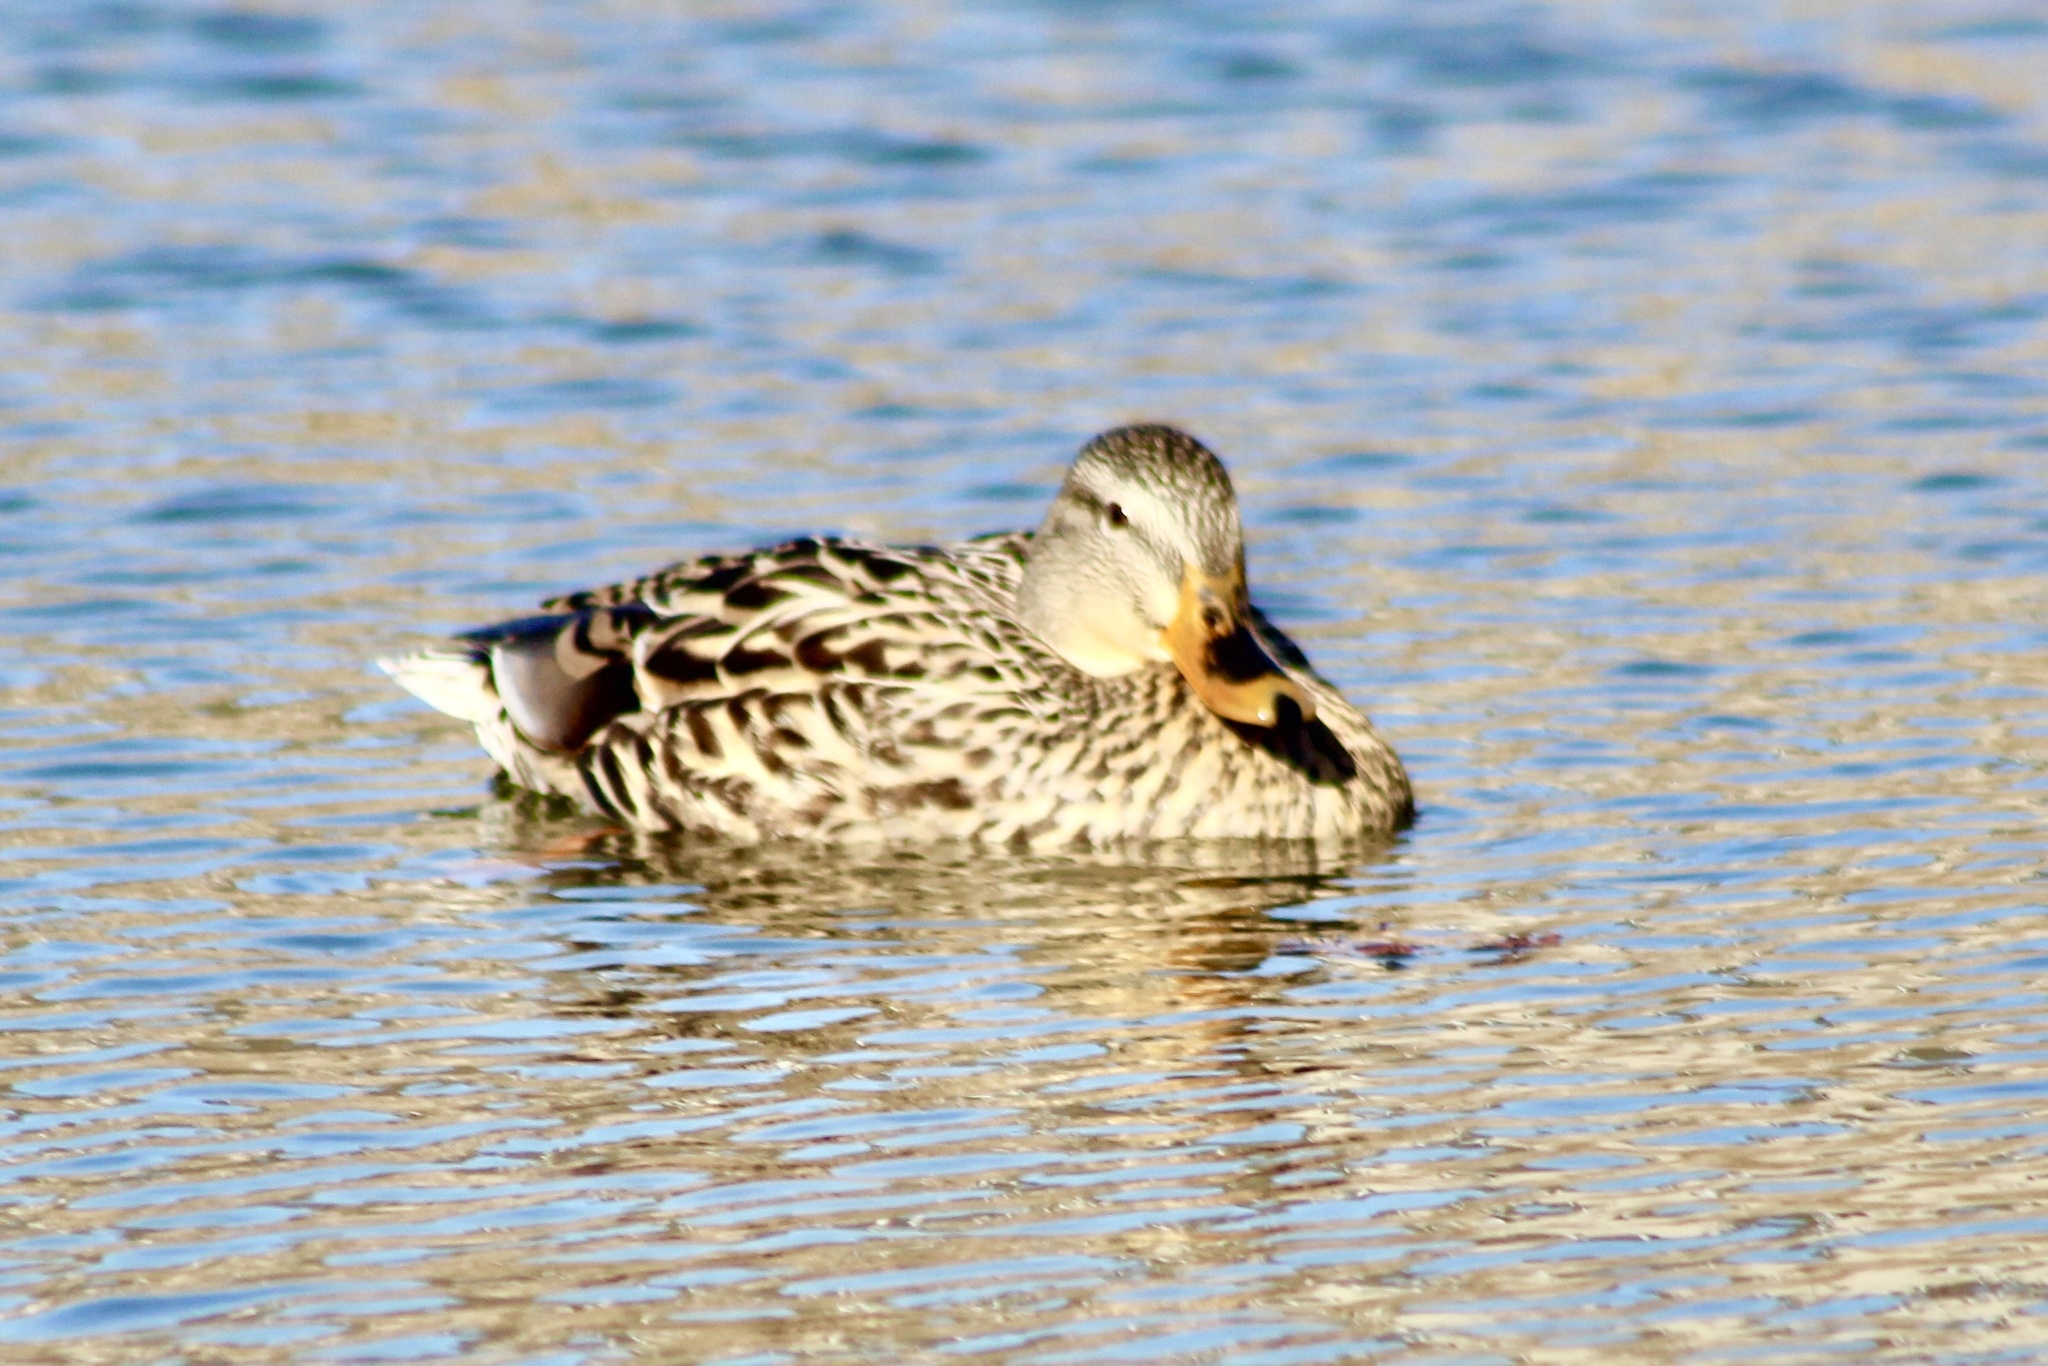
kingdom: Animalia
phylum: Chordata
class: Aves
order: Anseriformes
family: Anatidae
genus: Anas
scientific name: Anas platyrhynchos
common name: Mallard
